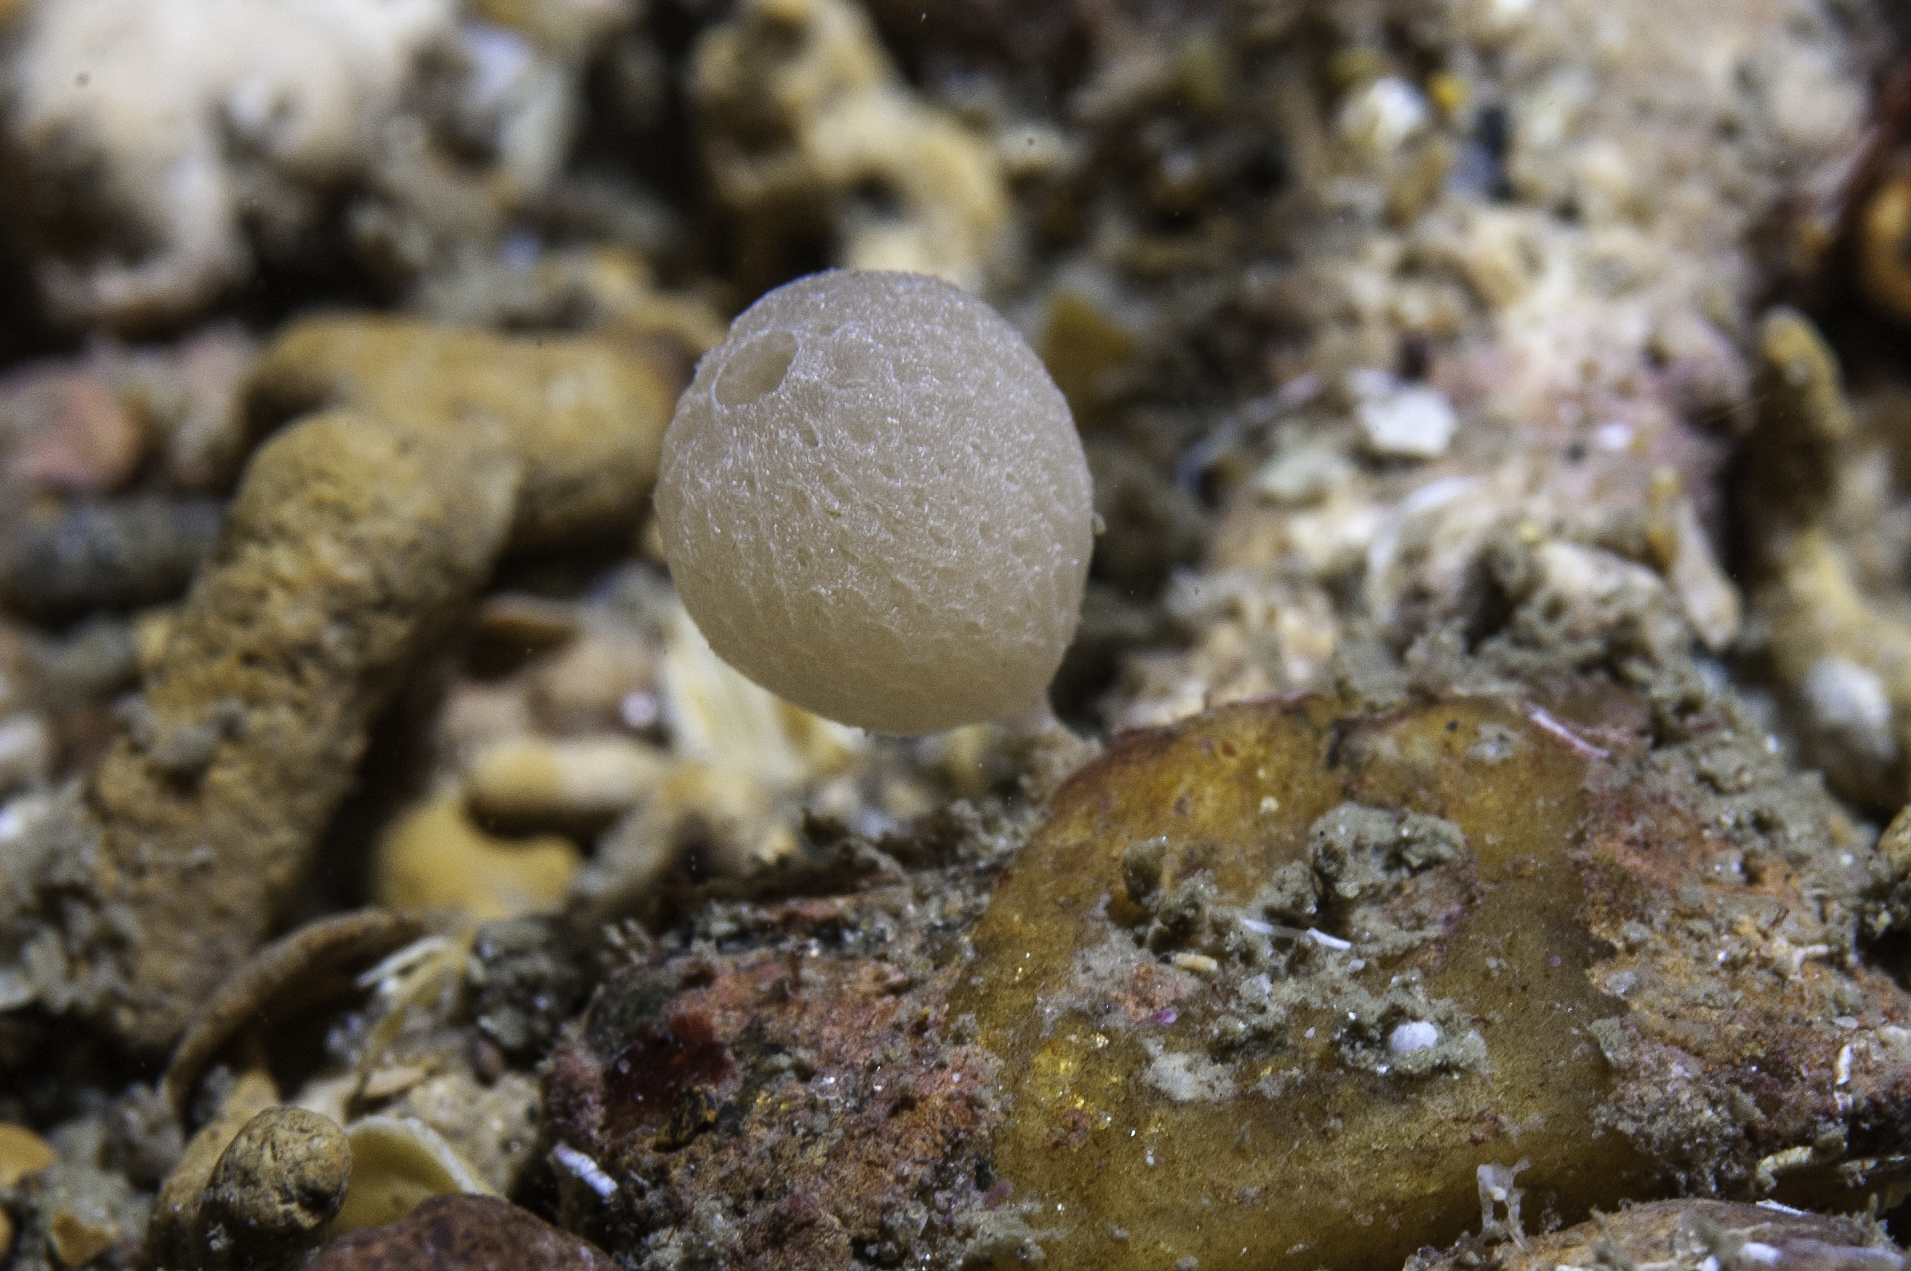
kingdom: Animalia
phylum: Porifera
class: Calcarea
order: Clathrinida
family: Clathrinidae
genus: Clathrina
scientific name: Clathrina lacunosa
